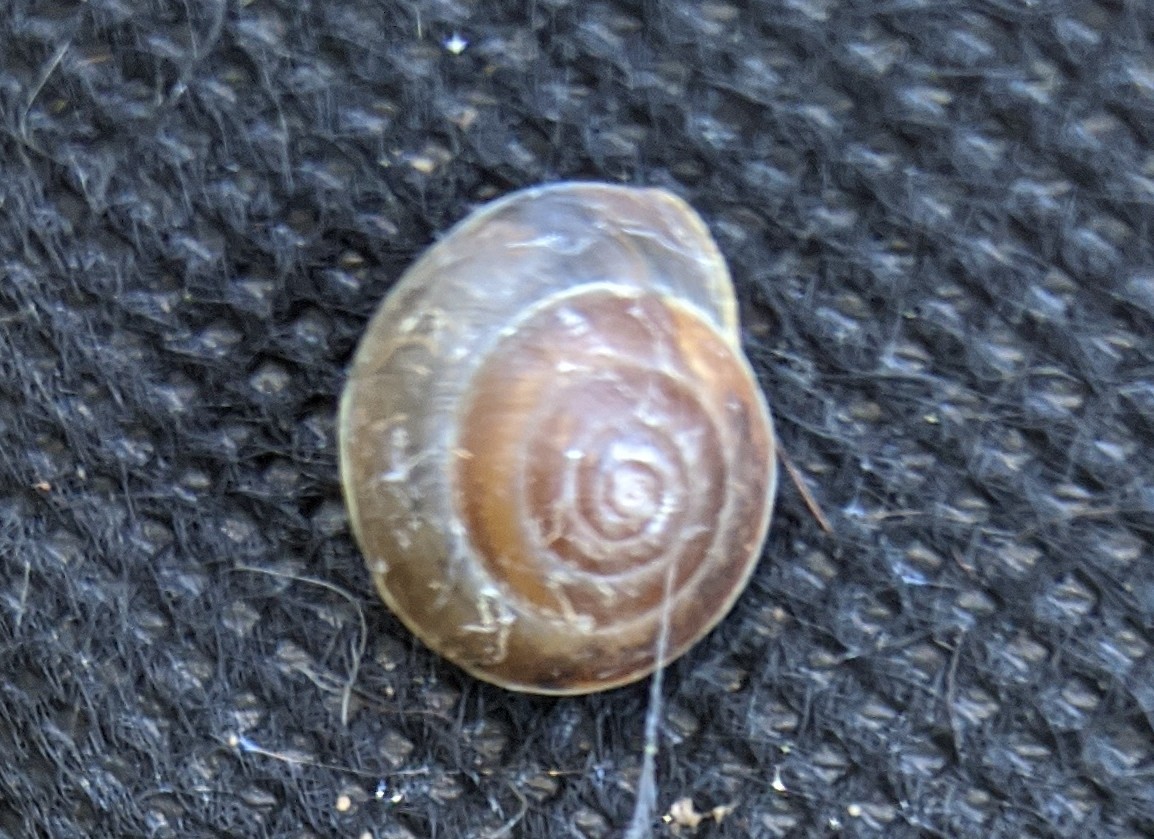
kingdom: Animalia
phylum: Mollusca
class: Gastropoda
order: Stylommatophora
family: Hygromiidae
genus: Hygromia
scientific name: Hygromia cinctella
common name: Girdled snail
